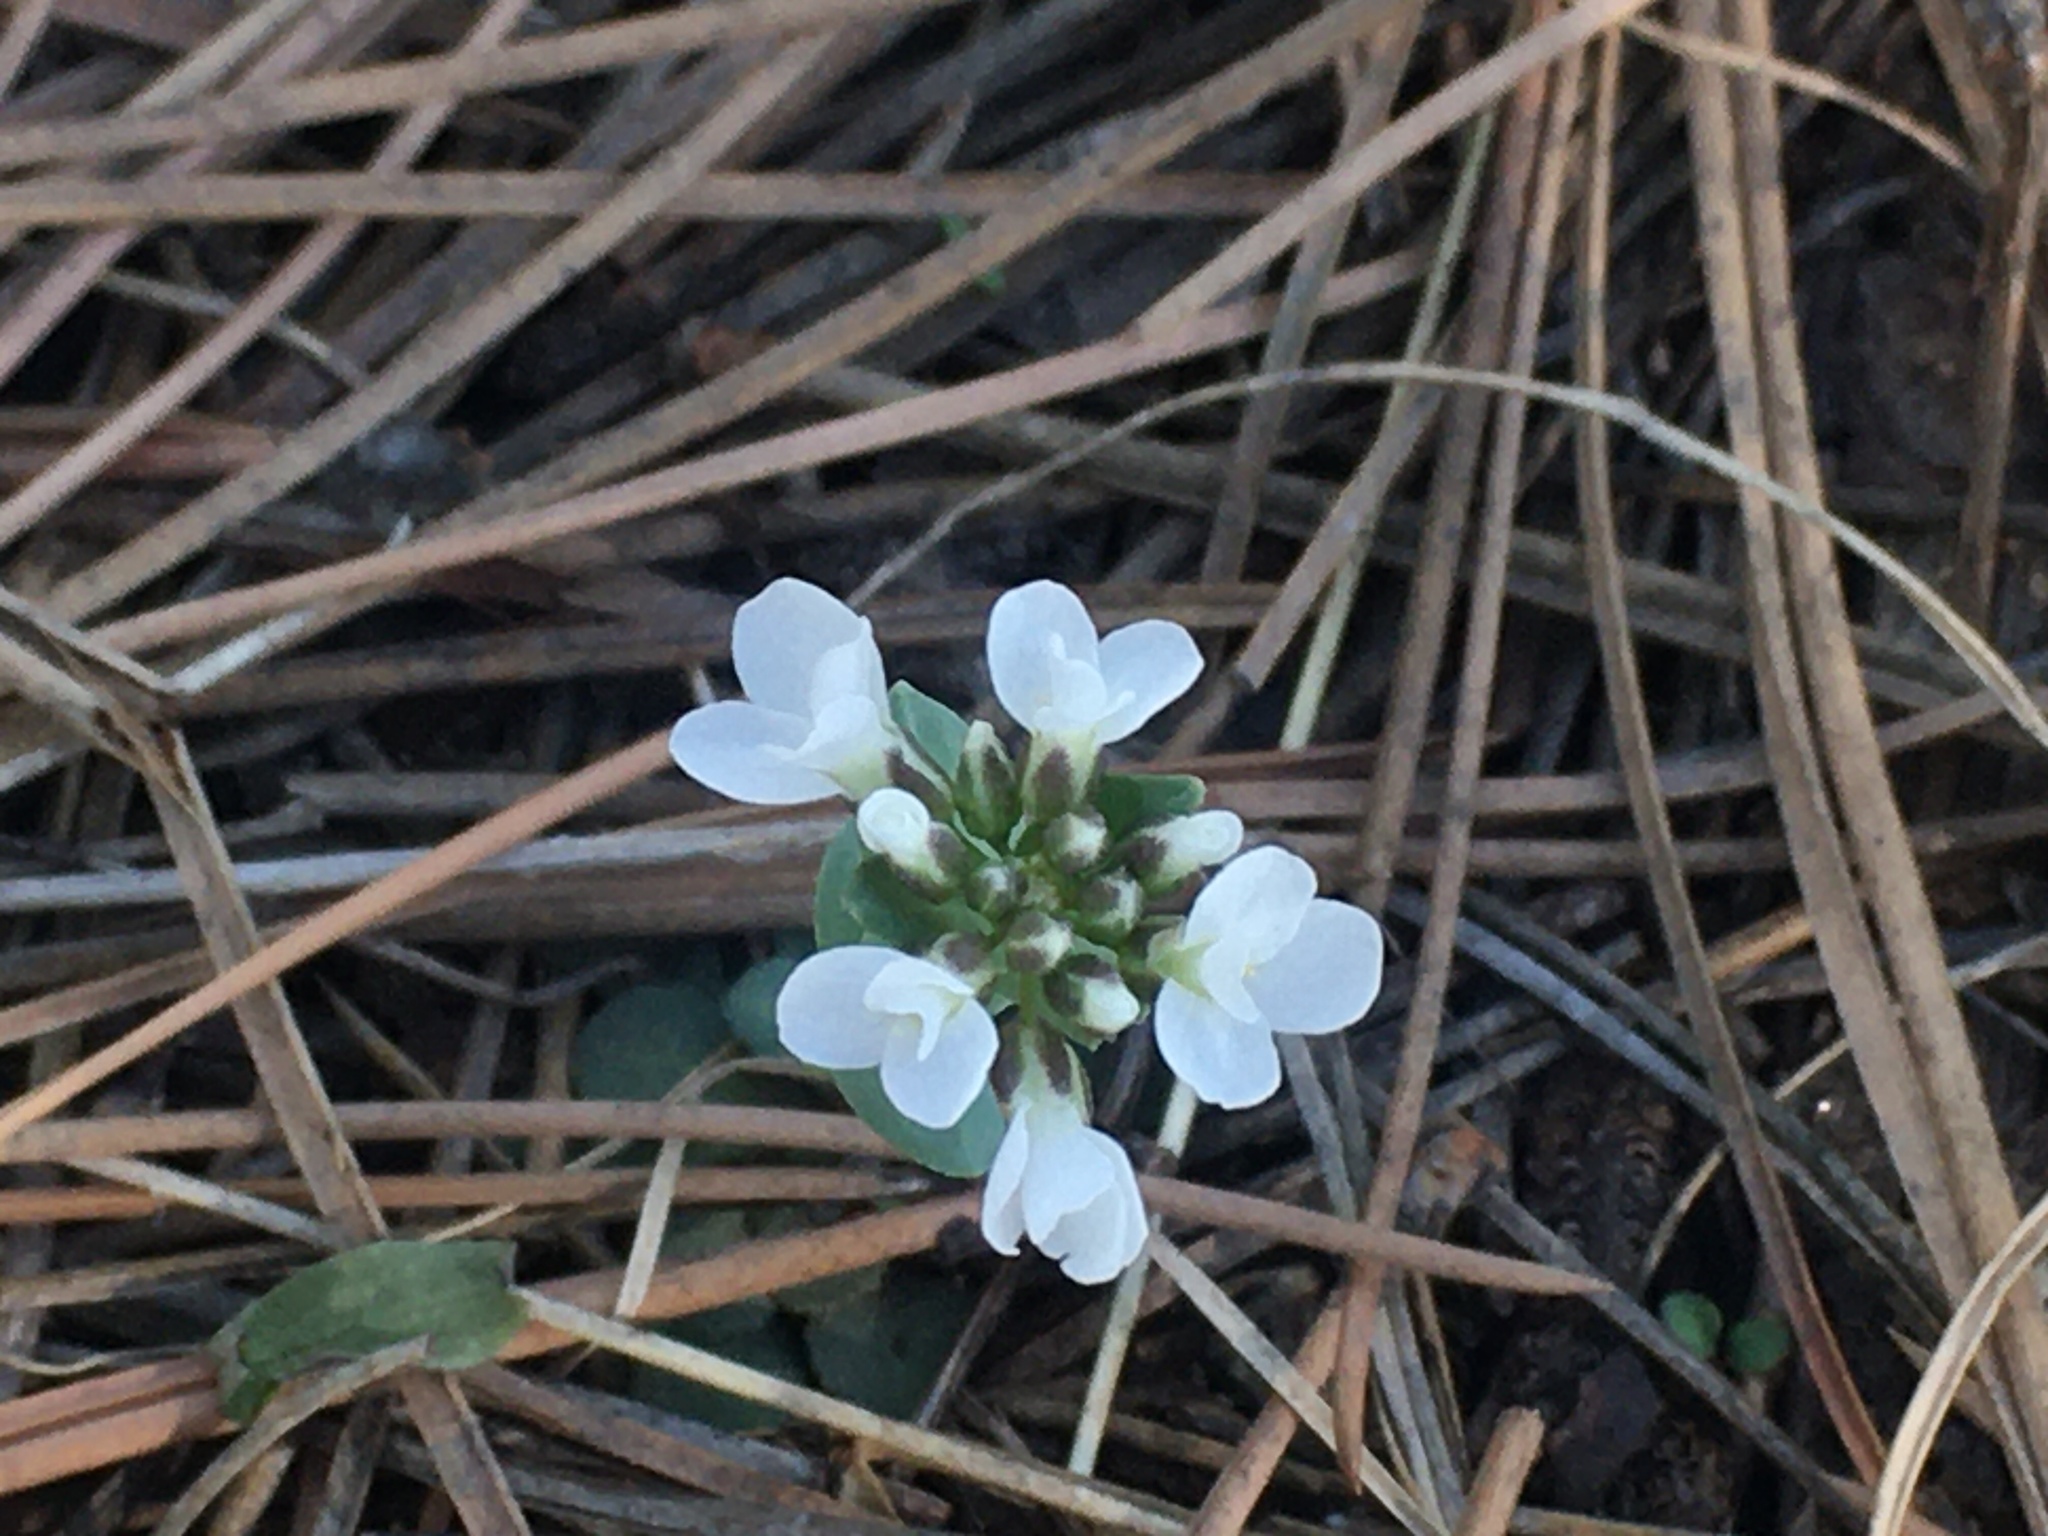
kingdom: Plantae
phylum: Tracheophyta
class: Magnoliopsida
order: Brassicales
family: Brassicaceae
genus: Noccaea
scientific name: Noccaea fendleri
